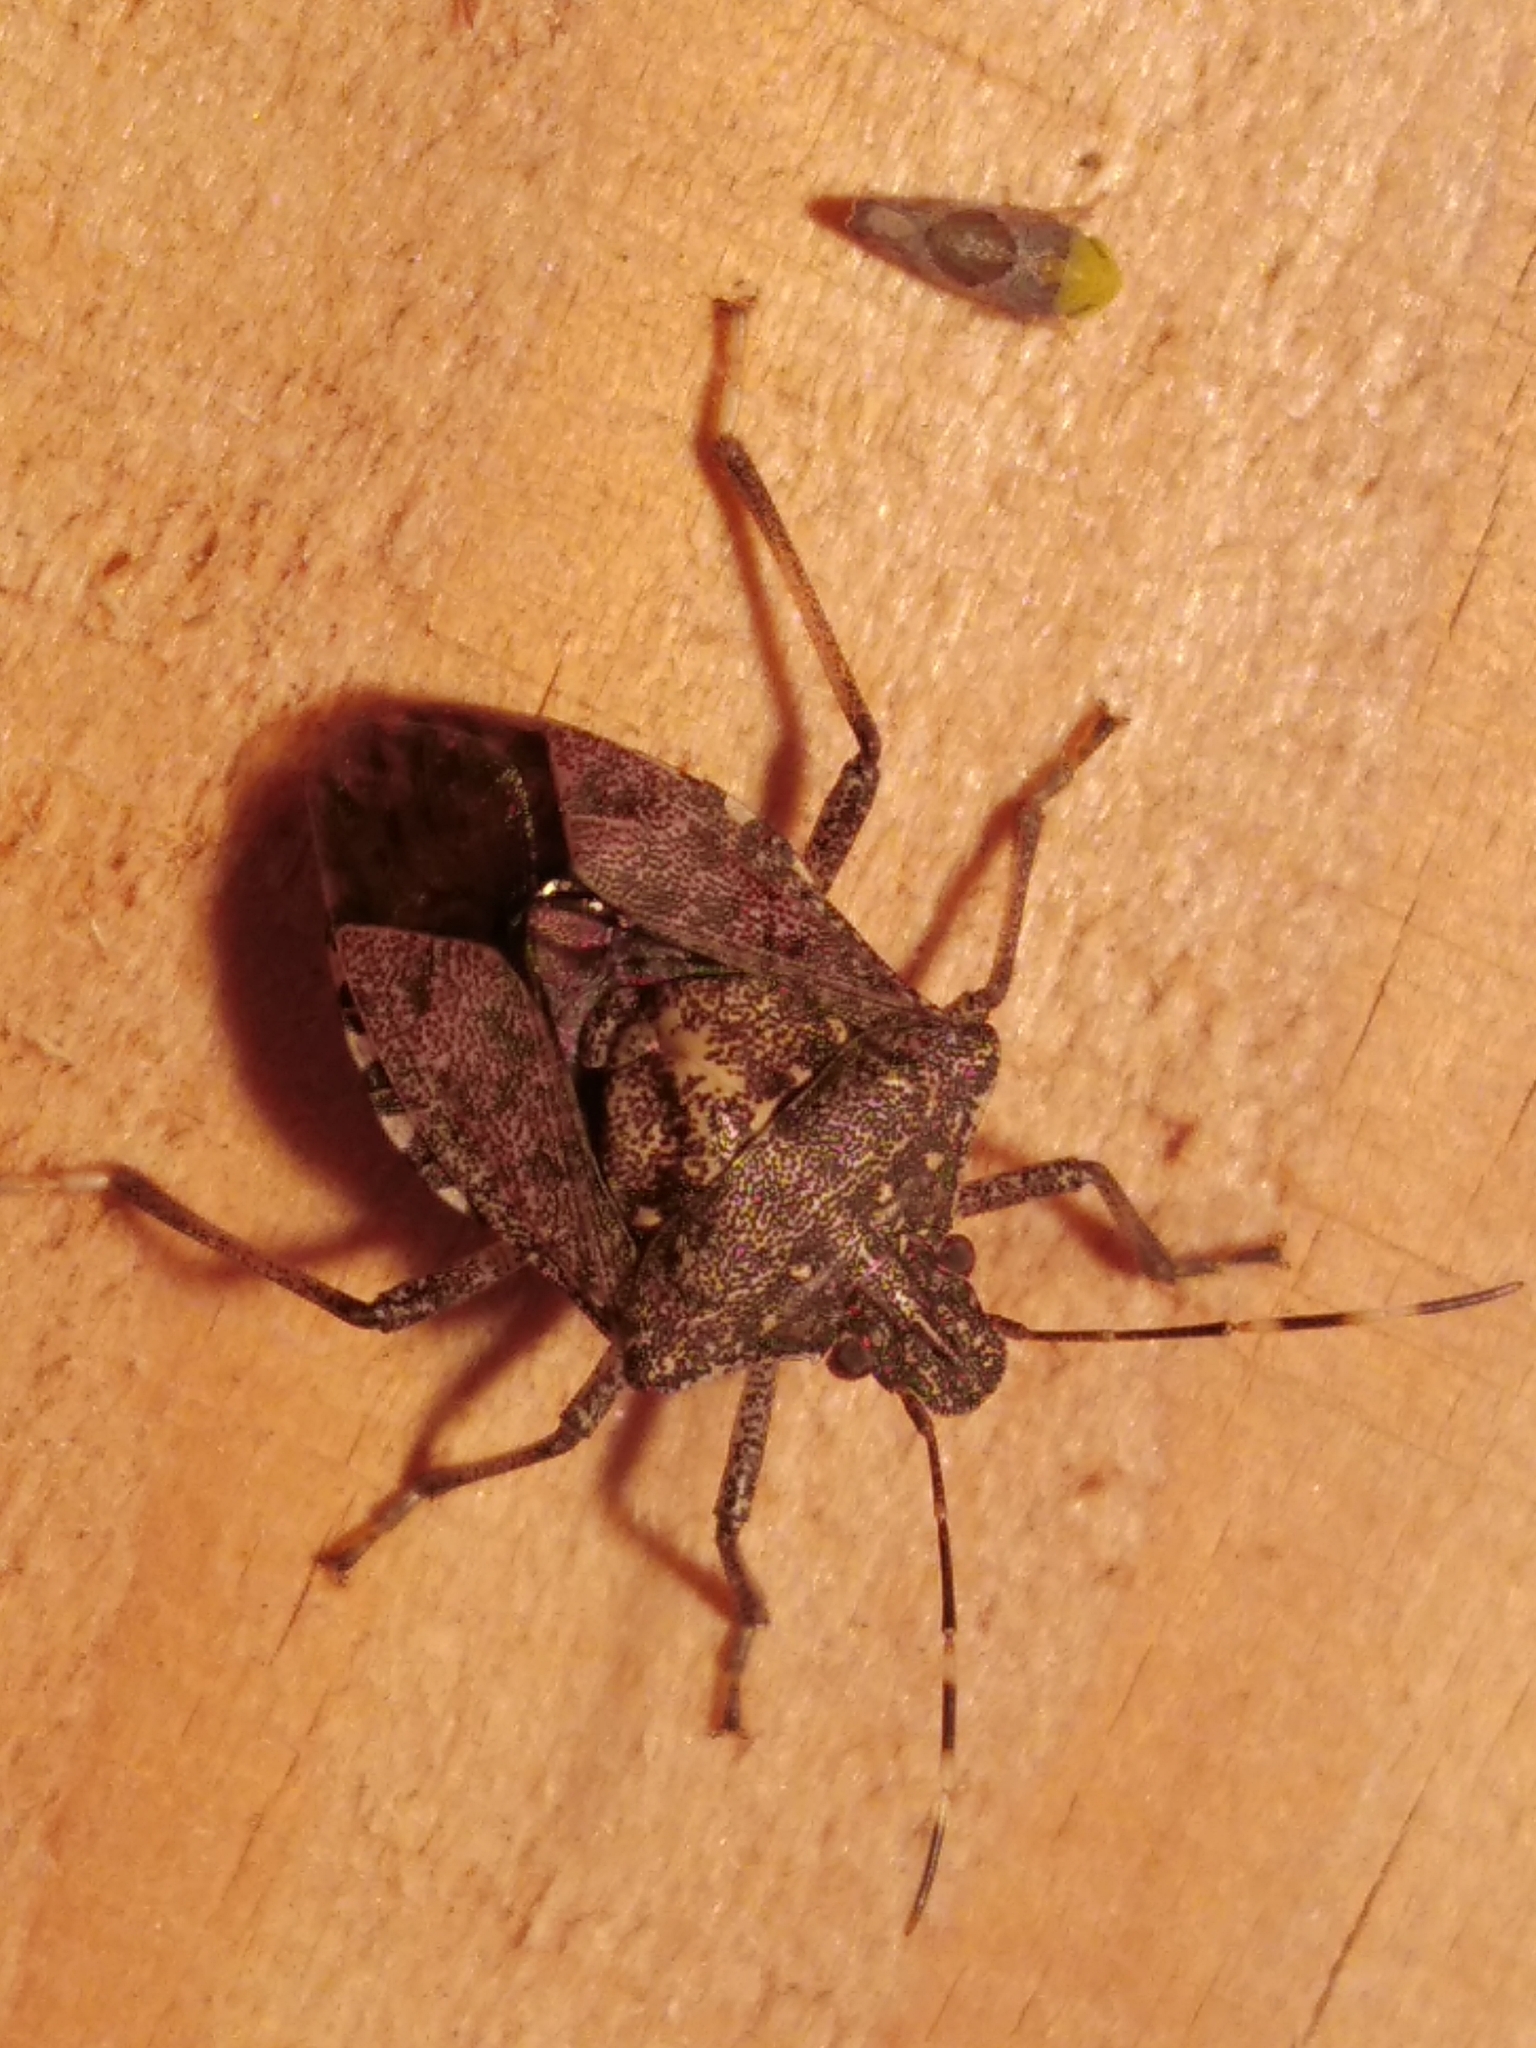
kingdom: Animalia
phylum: Arthropoda
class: Insecta
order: Hemiptera
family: Pentatomidae
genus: Halyomorpha
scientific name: Halyomorpha halys
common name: Brown marmorated stink bug
